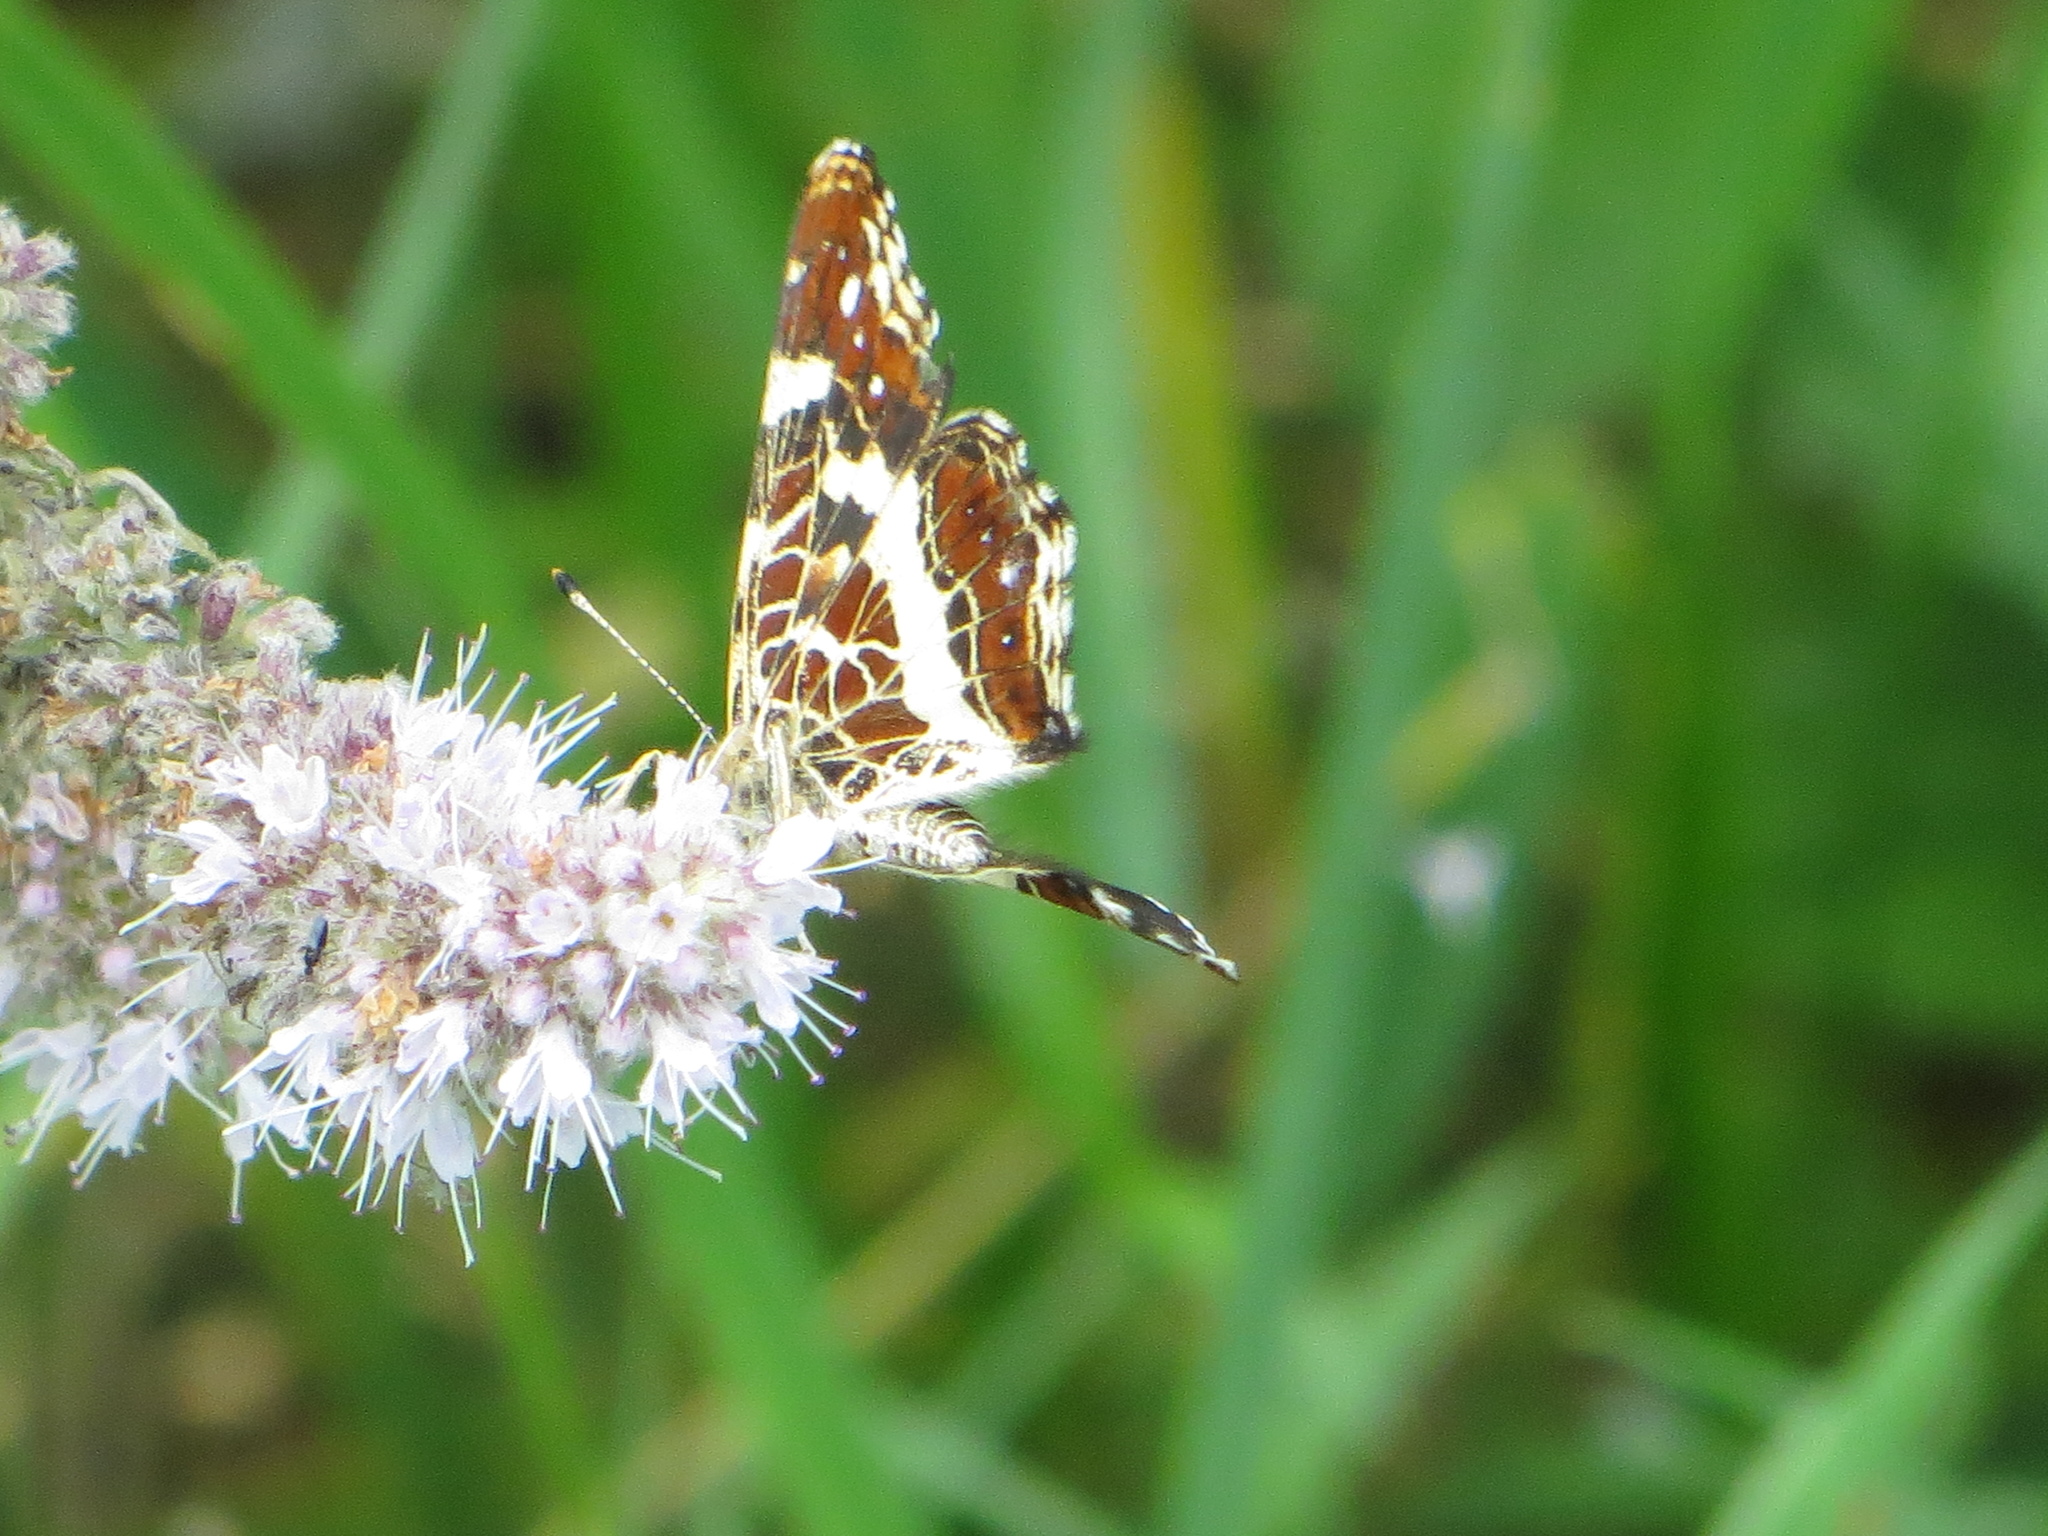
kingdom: Animalia
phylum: Arthropoda
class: Insecta
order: Lepidoptera
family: Nymphalidae
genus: Araschnia
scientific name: Araschnia levana
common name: Map butterfly
